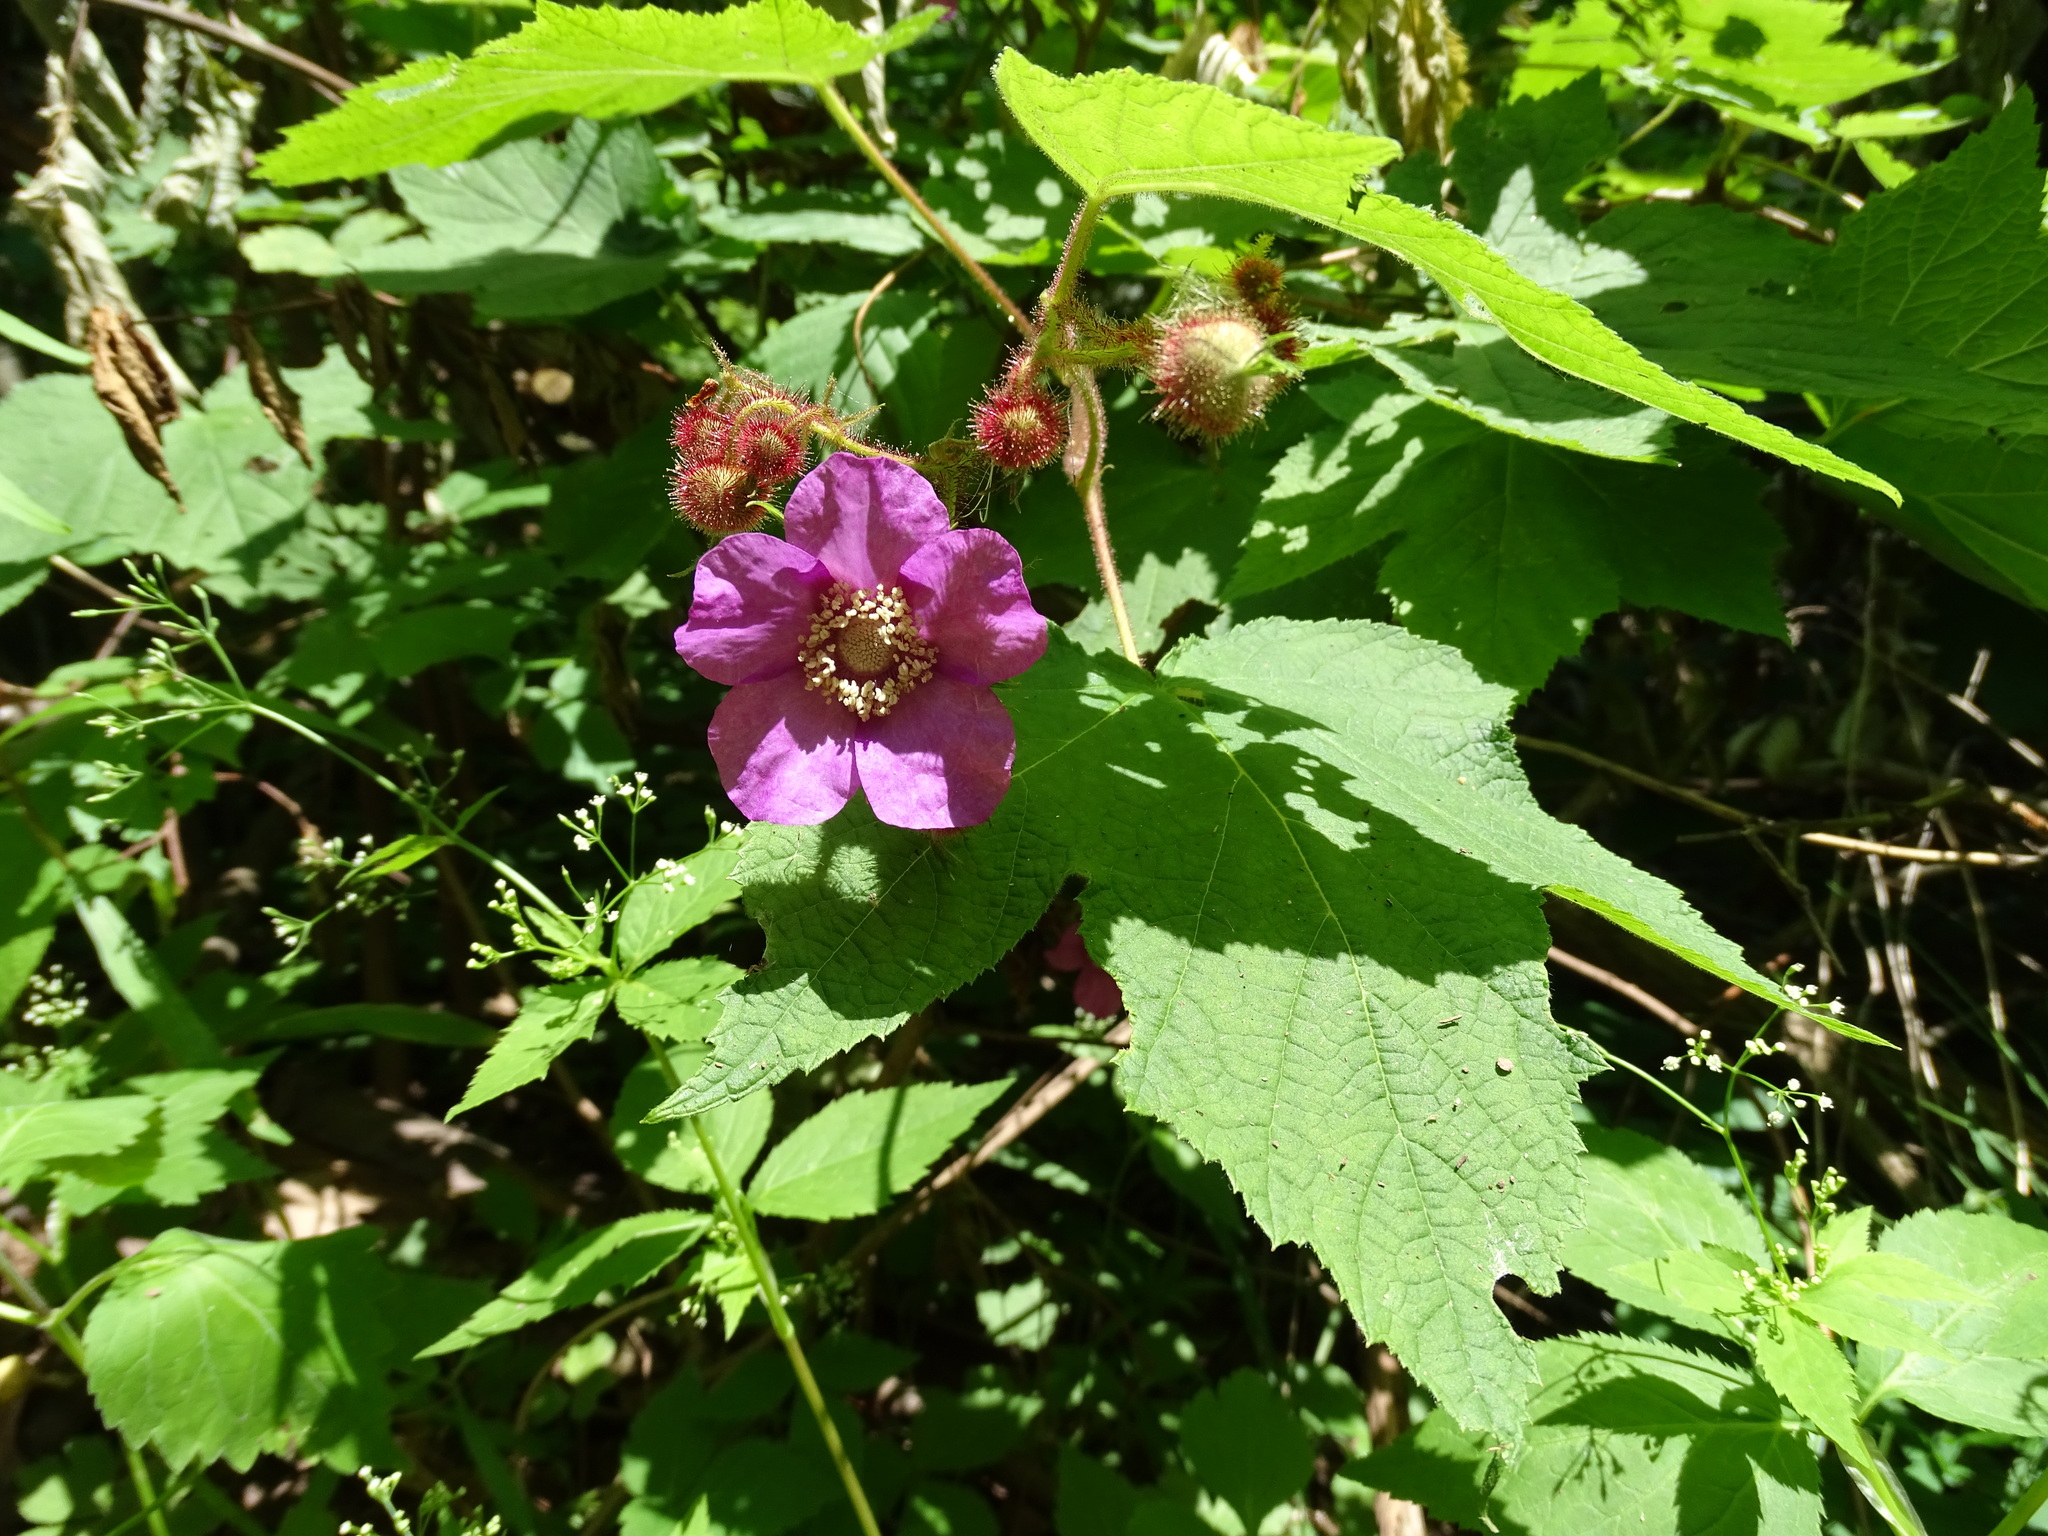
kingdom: Plantae
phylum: Tracheophyta
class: Magnoliopsida
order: Rosales
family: Rosaceae
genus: Rubus
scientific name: Rubus odoratus
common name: Purple-flowered raspberry
